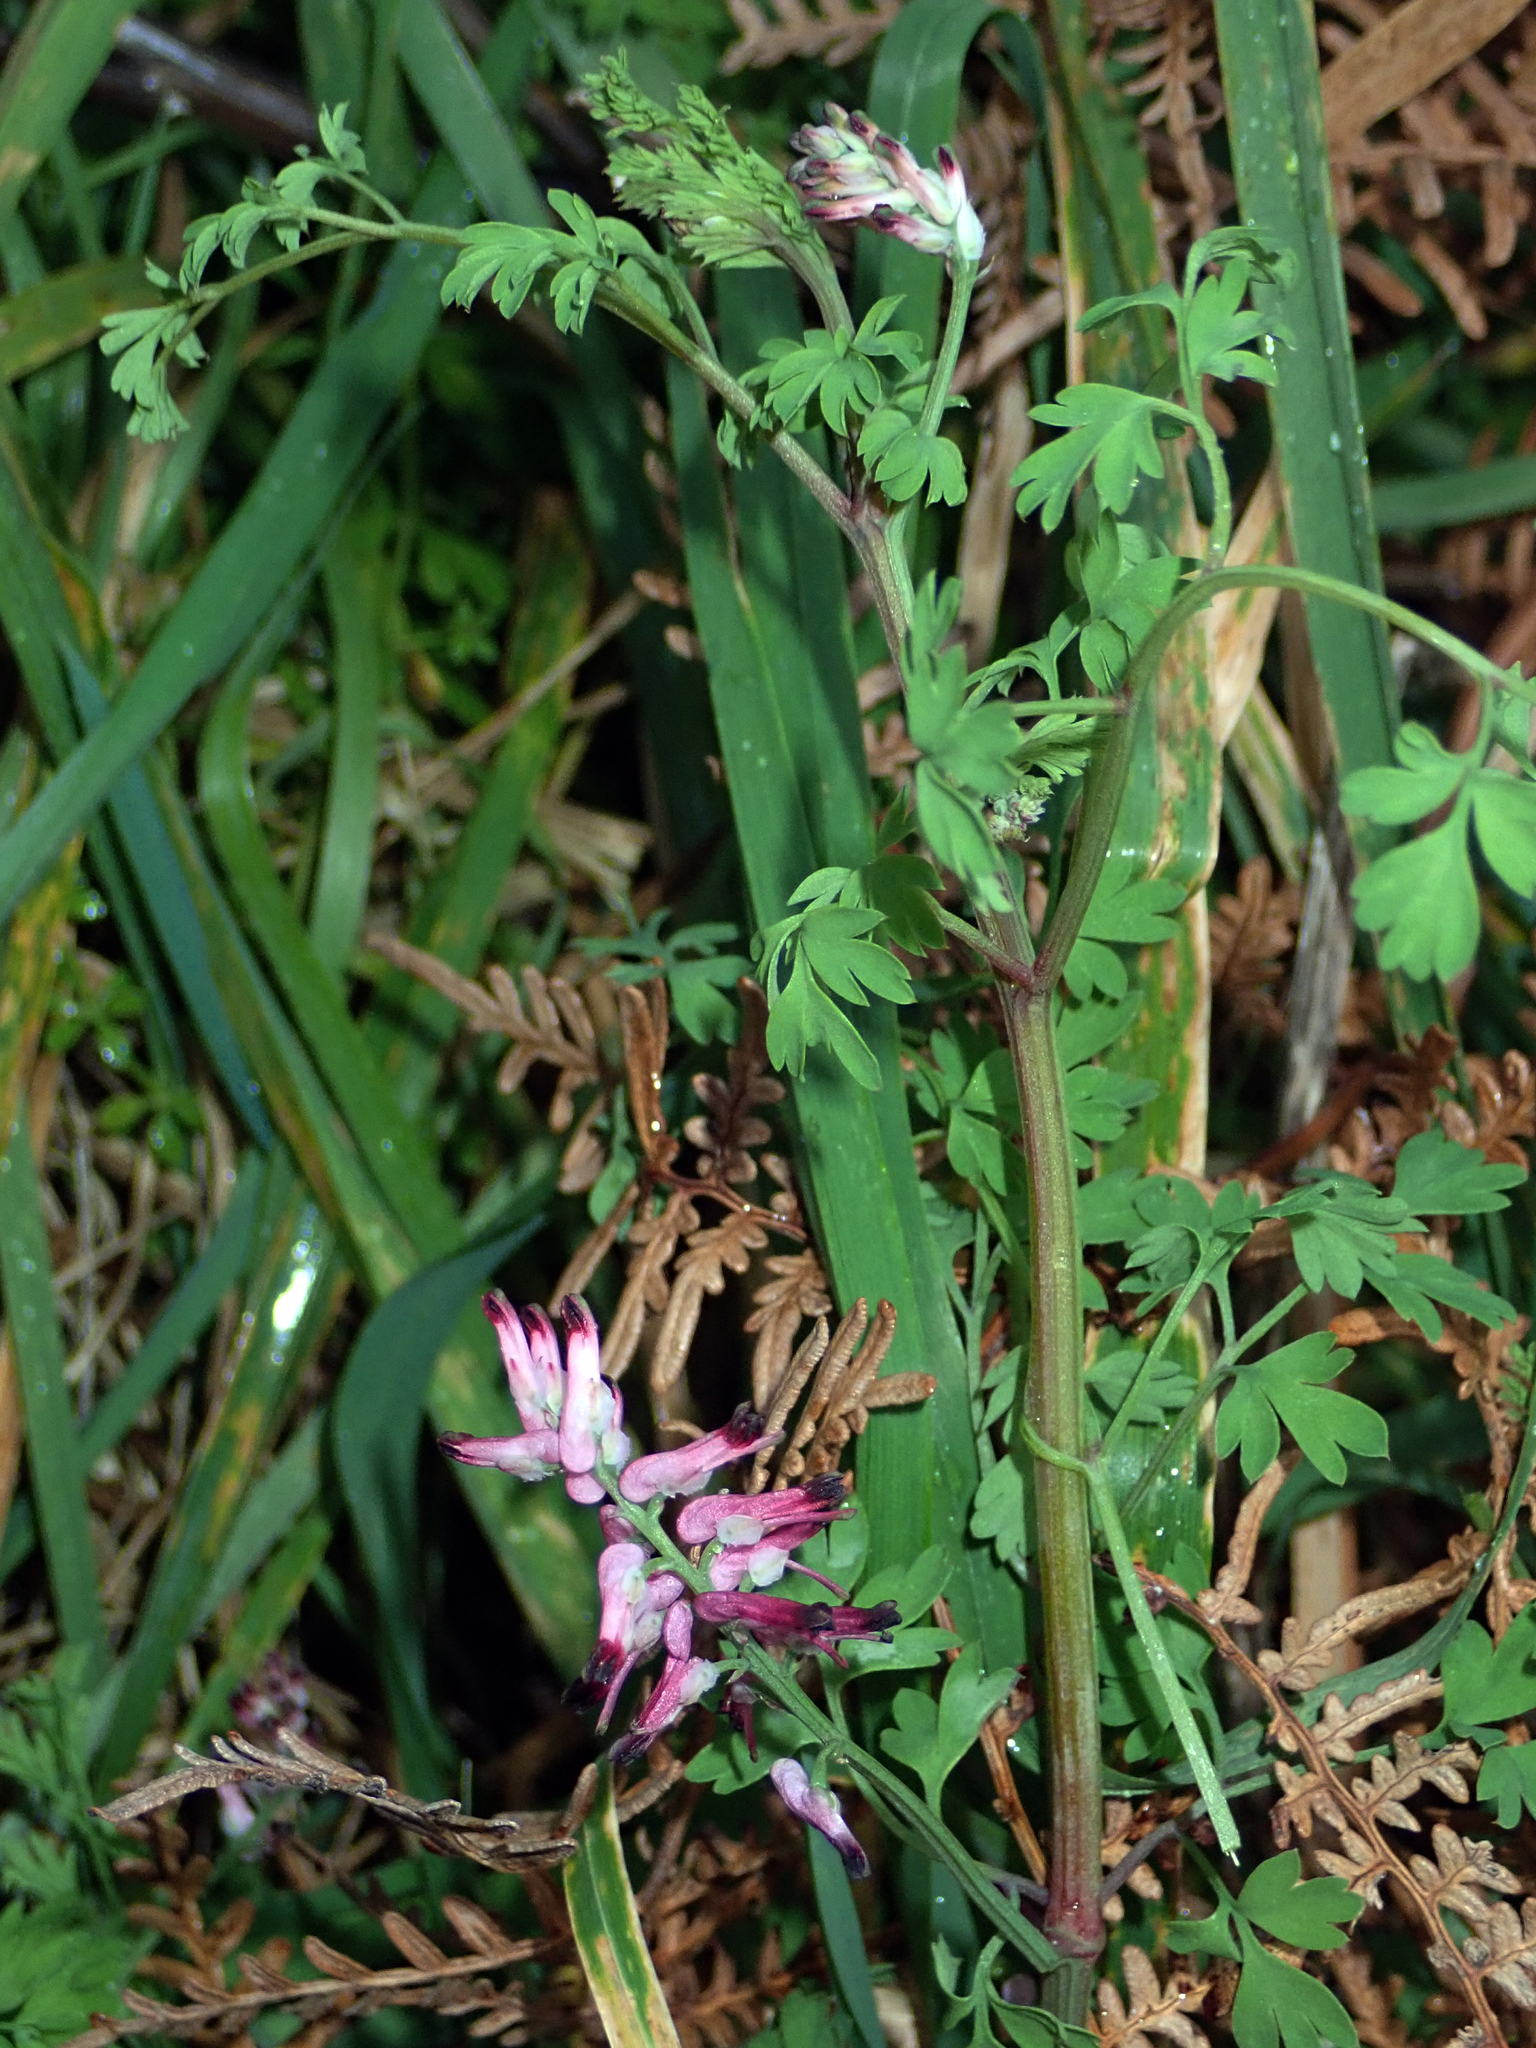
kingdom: Plantae
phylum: Tracheophyta
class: Magnoliopsida
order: Ranunculales
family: Papaveraceae
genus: Fumaria
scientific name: Fumaria muralis
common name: Common ramping-fumitory
